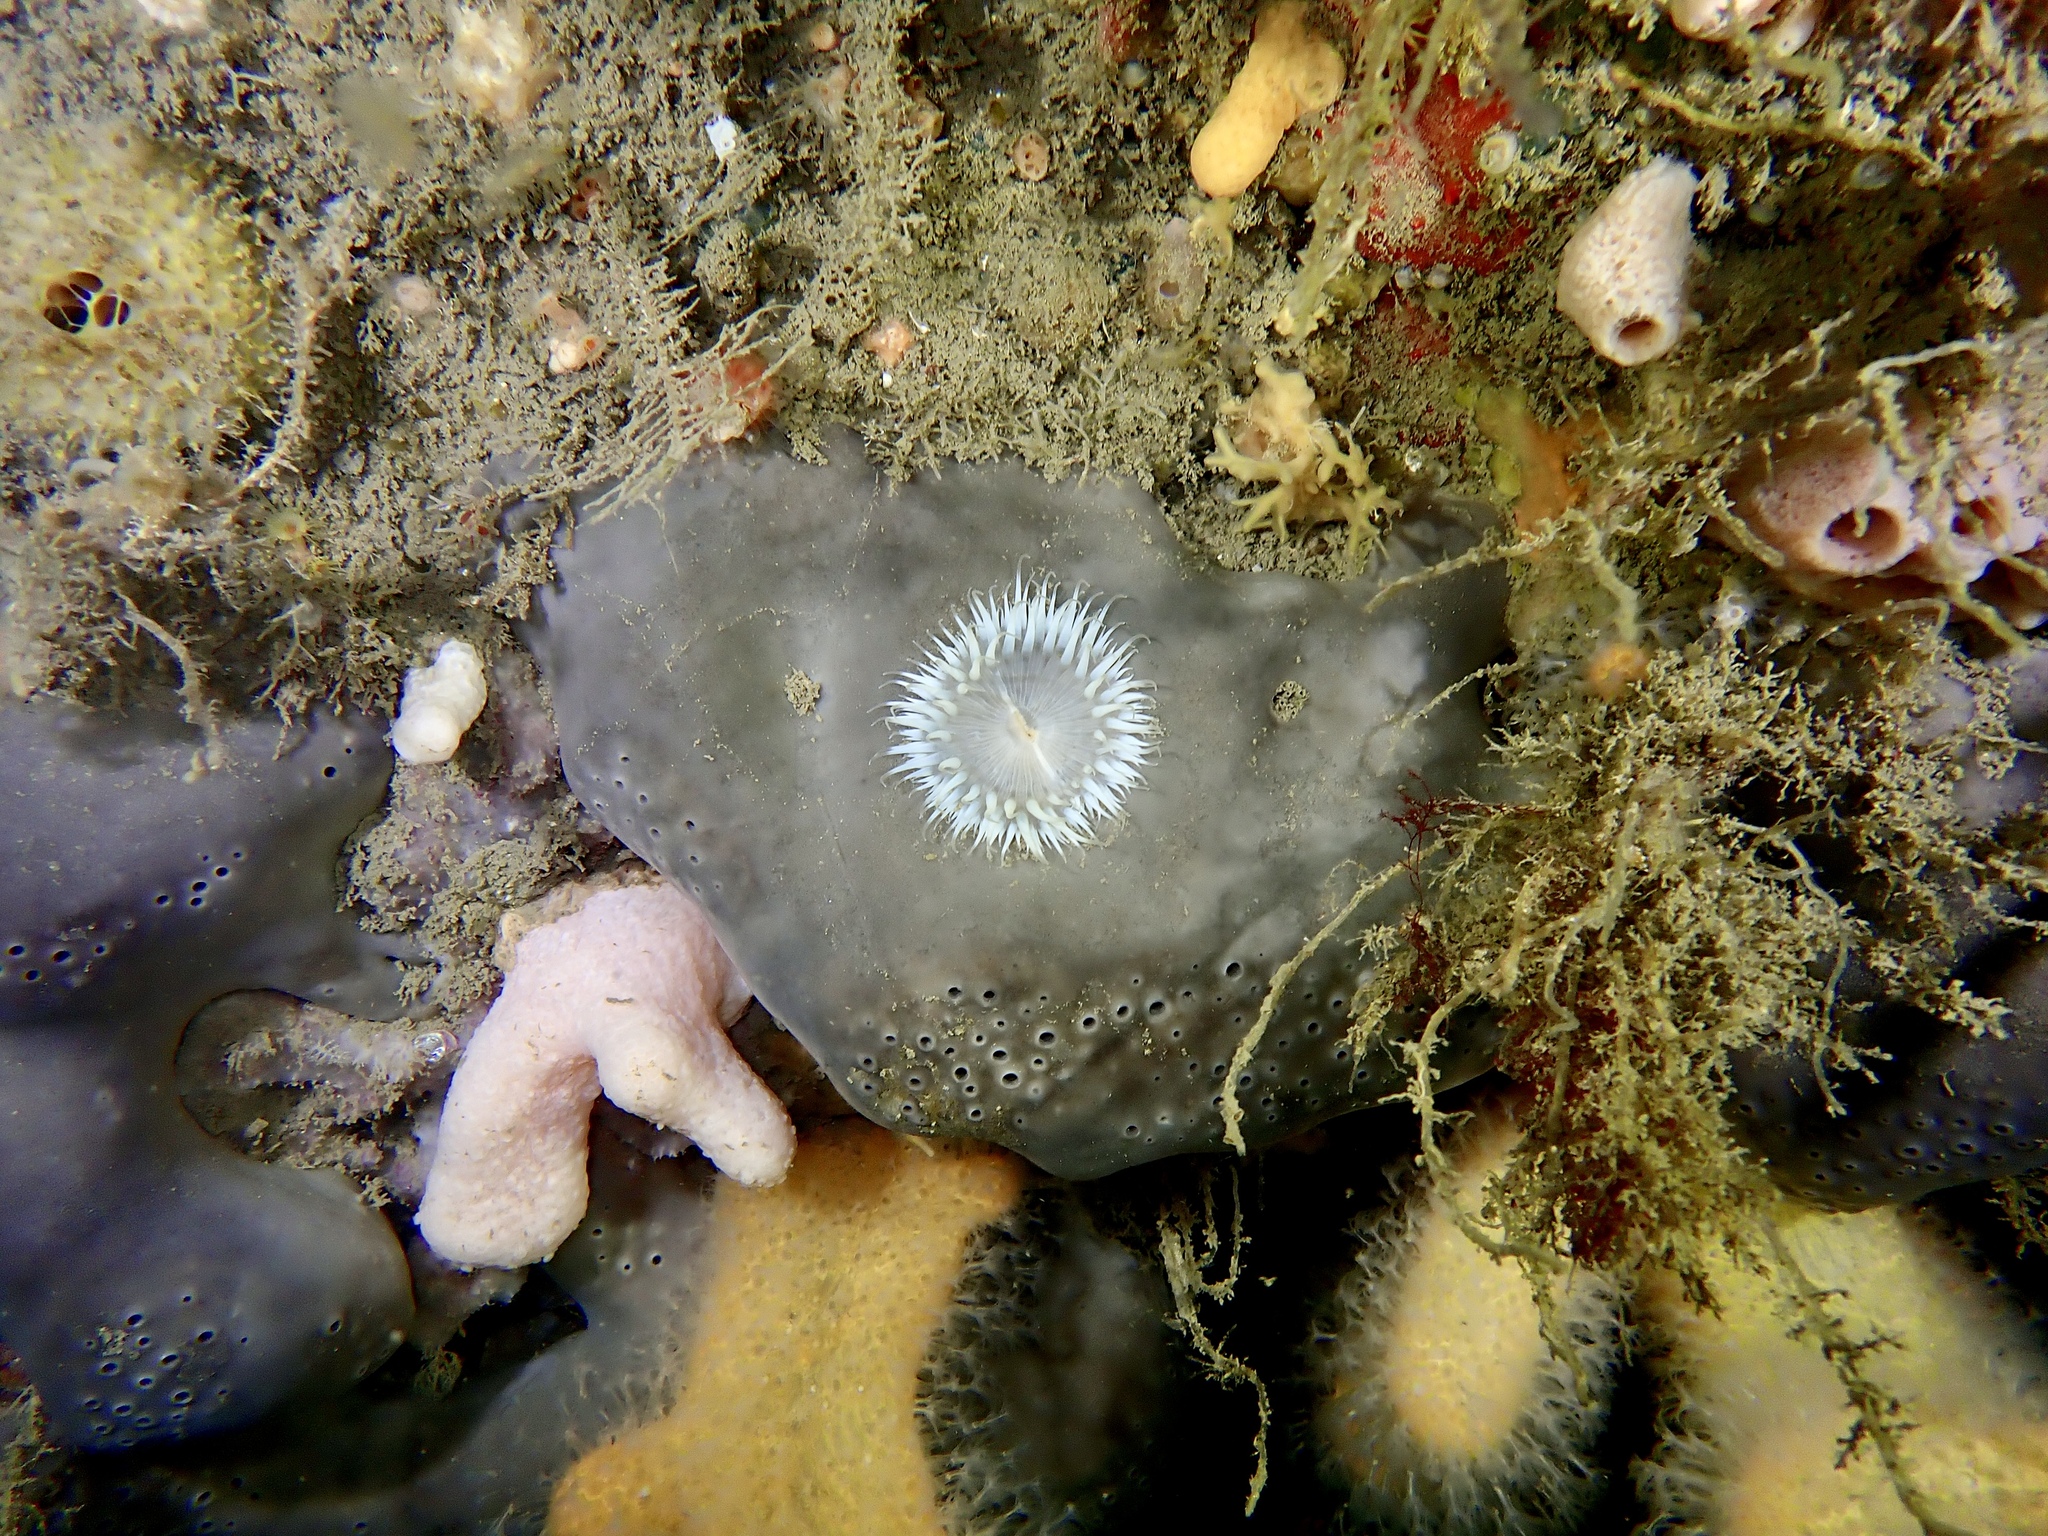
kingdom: Animalia
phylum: Porifera
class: Demospongiae
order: Tetractinellida
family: Geodiidae
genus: Pachymatisma
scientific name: Pachymatisma johnstonia
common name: Elephant ear sponge
